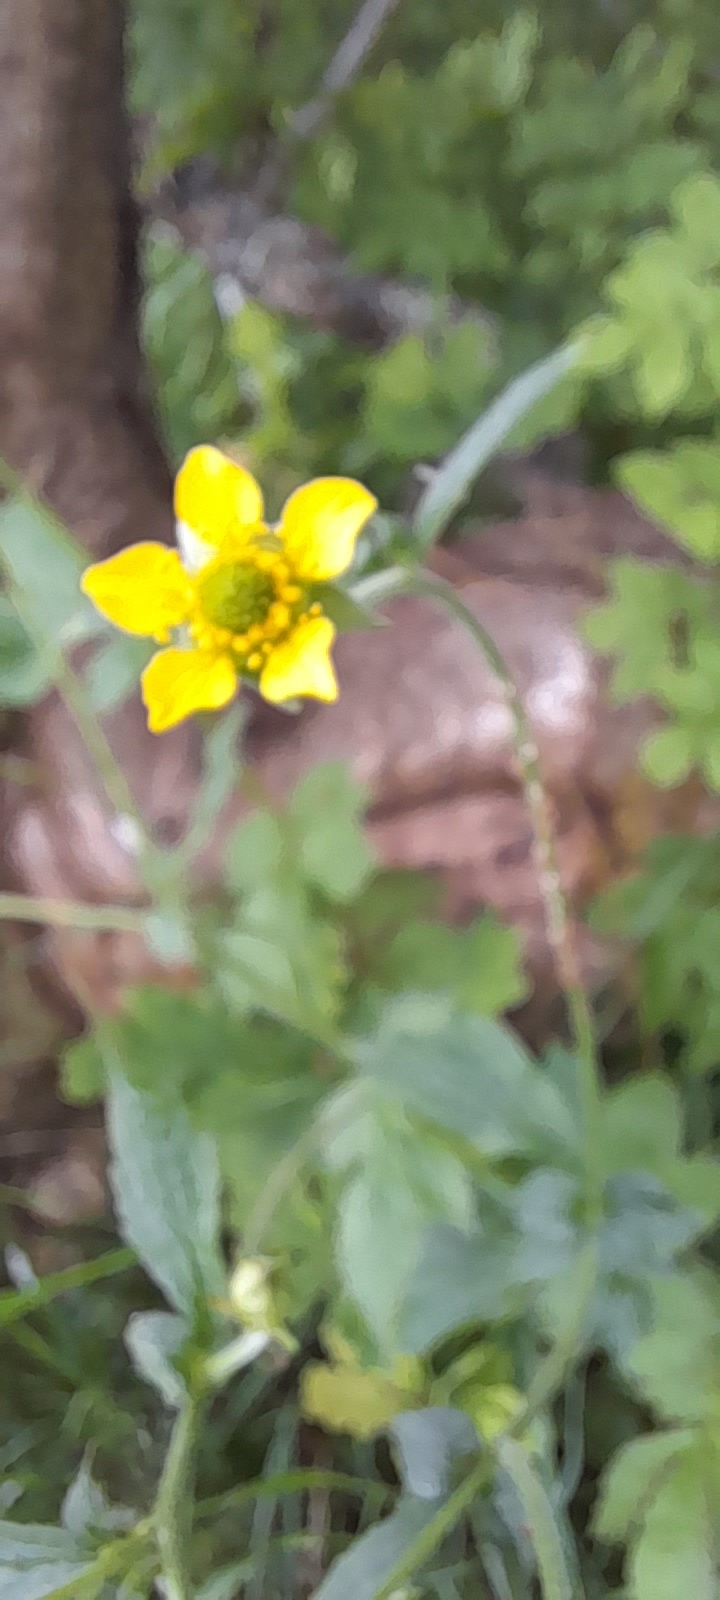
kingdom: Plantae
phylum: Tracheophyta
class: Magnoliopsida
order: Rosales
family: Rosaceae
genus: Geum
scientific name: Geum urbanum
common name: Wood avens
